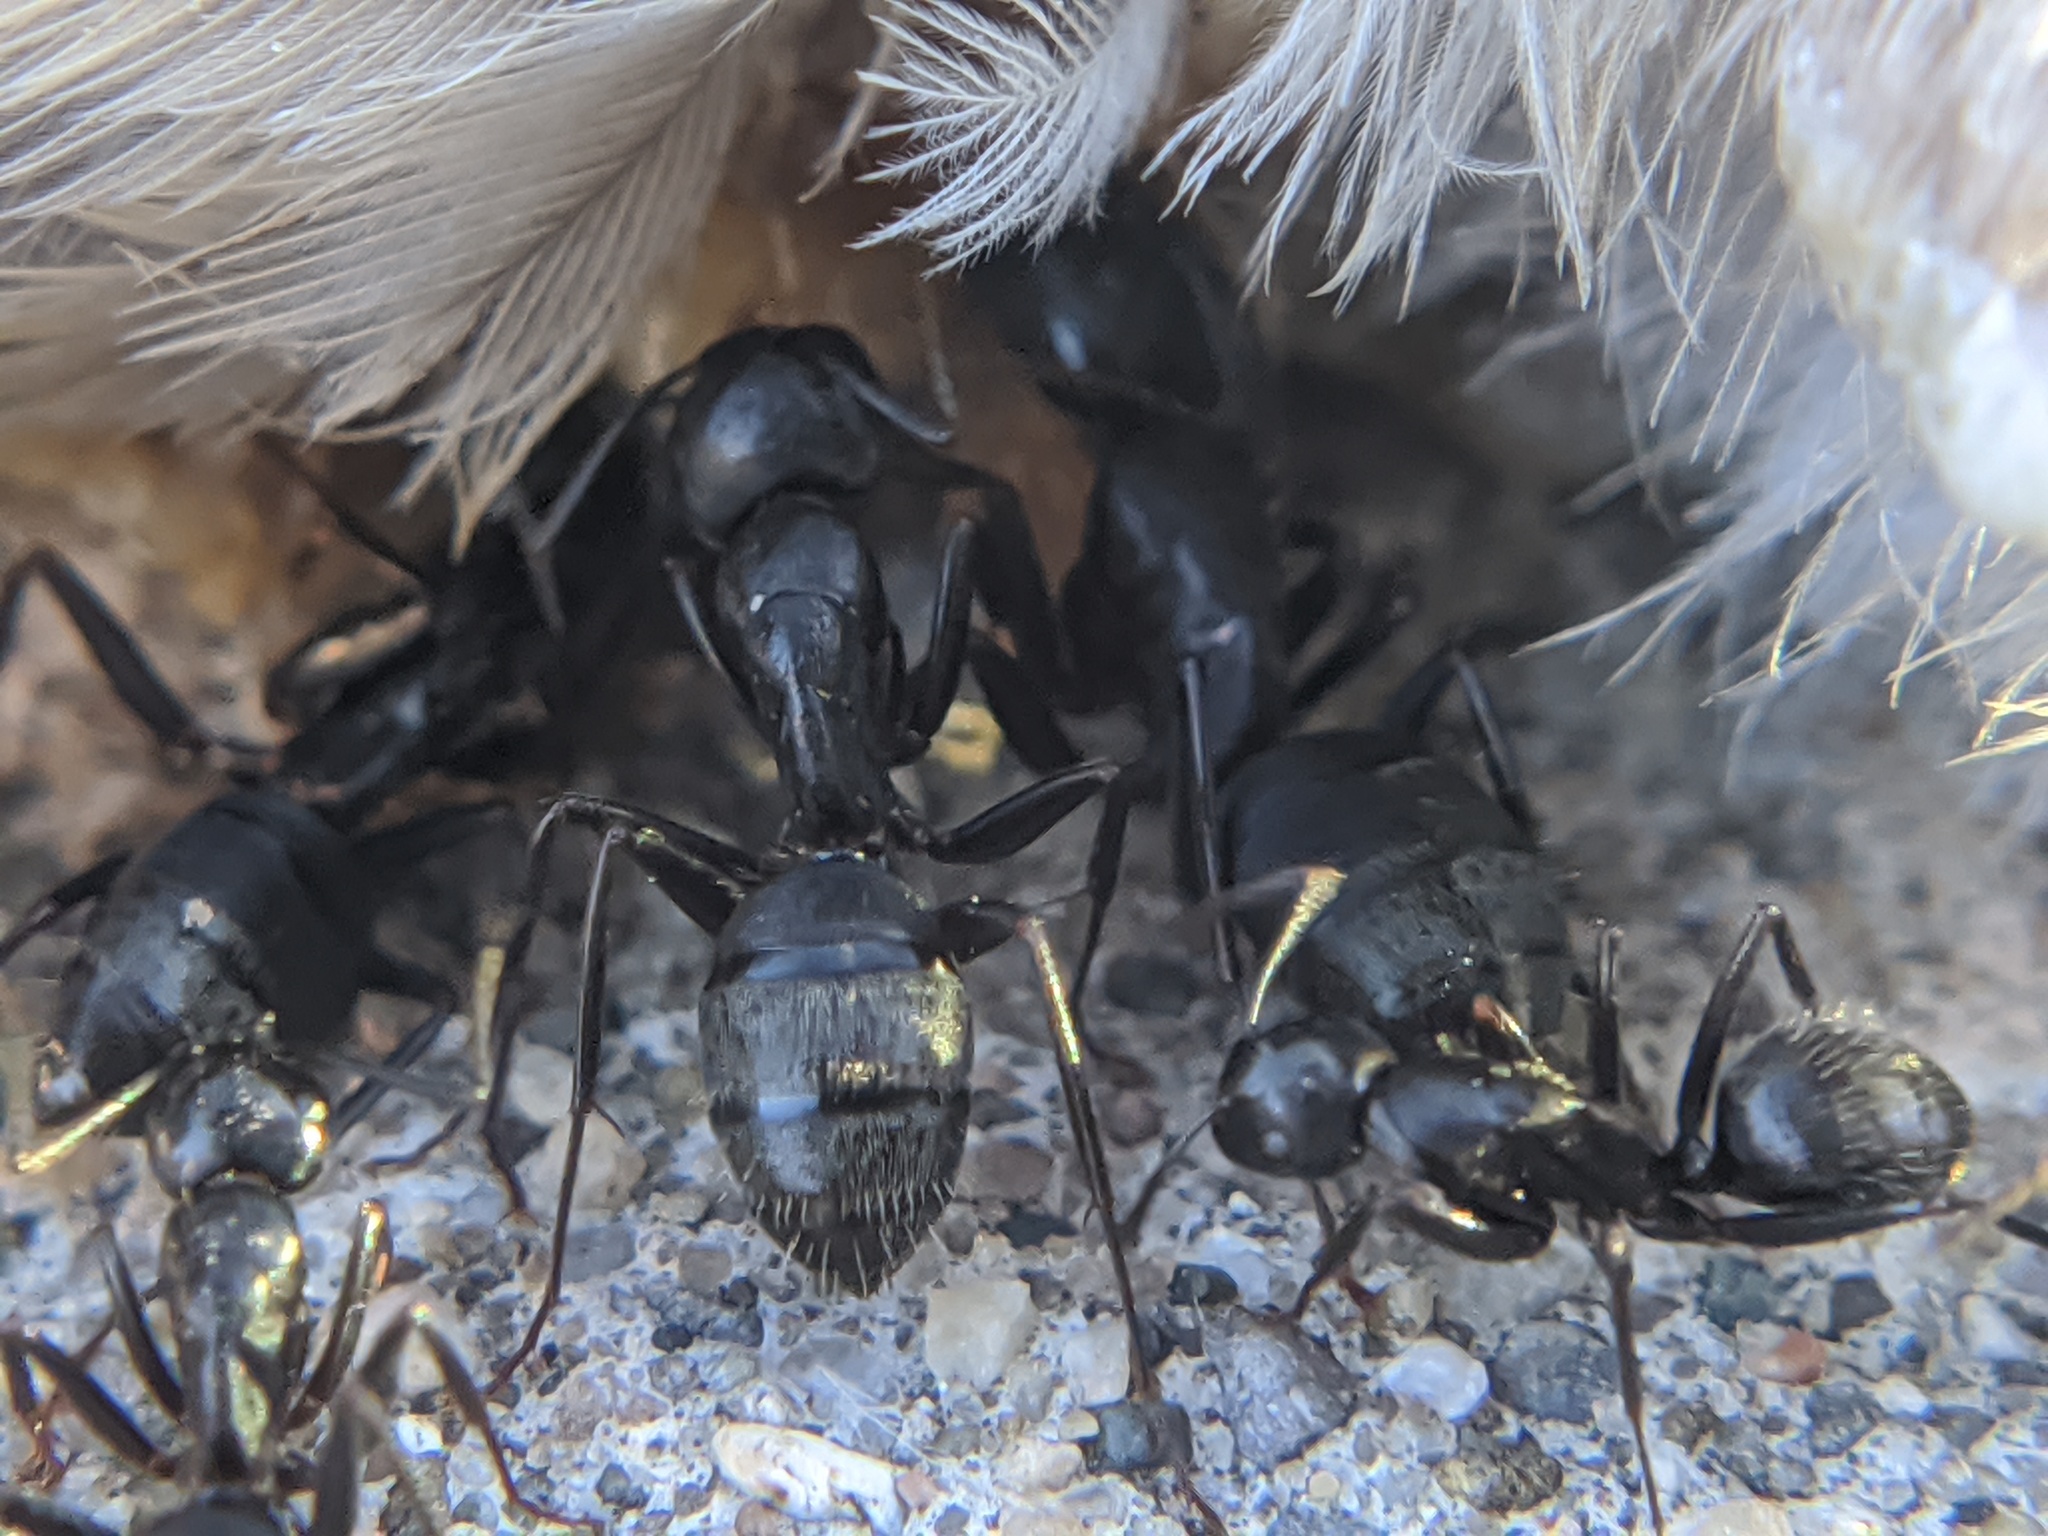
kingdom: Animalia
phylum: Arthropoda
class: Insecta
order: Hymenoptera
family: Formicidae
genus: Camponotus
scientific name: Camponotus pennsylvanicus
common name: Black carpenter ant
